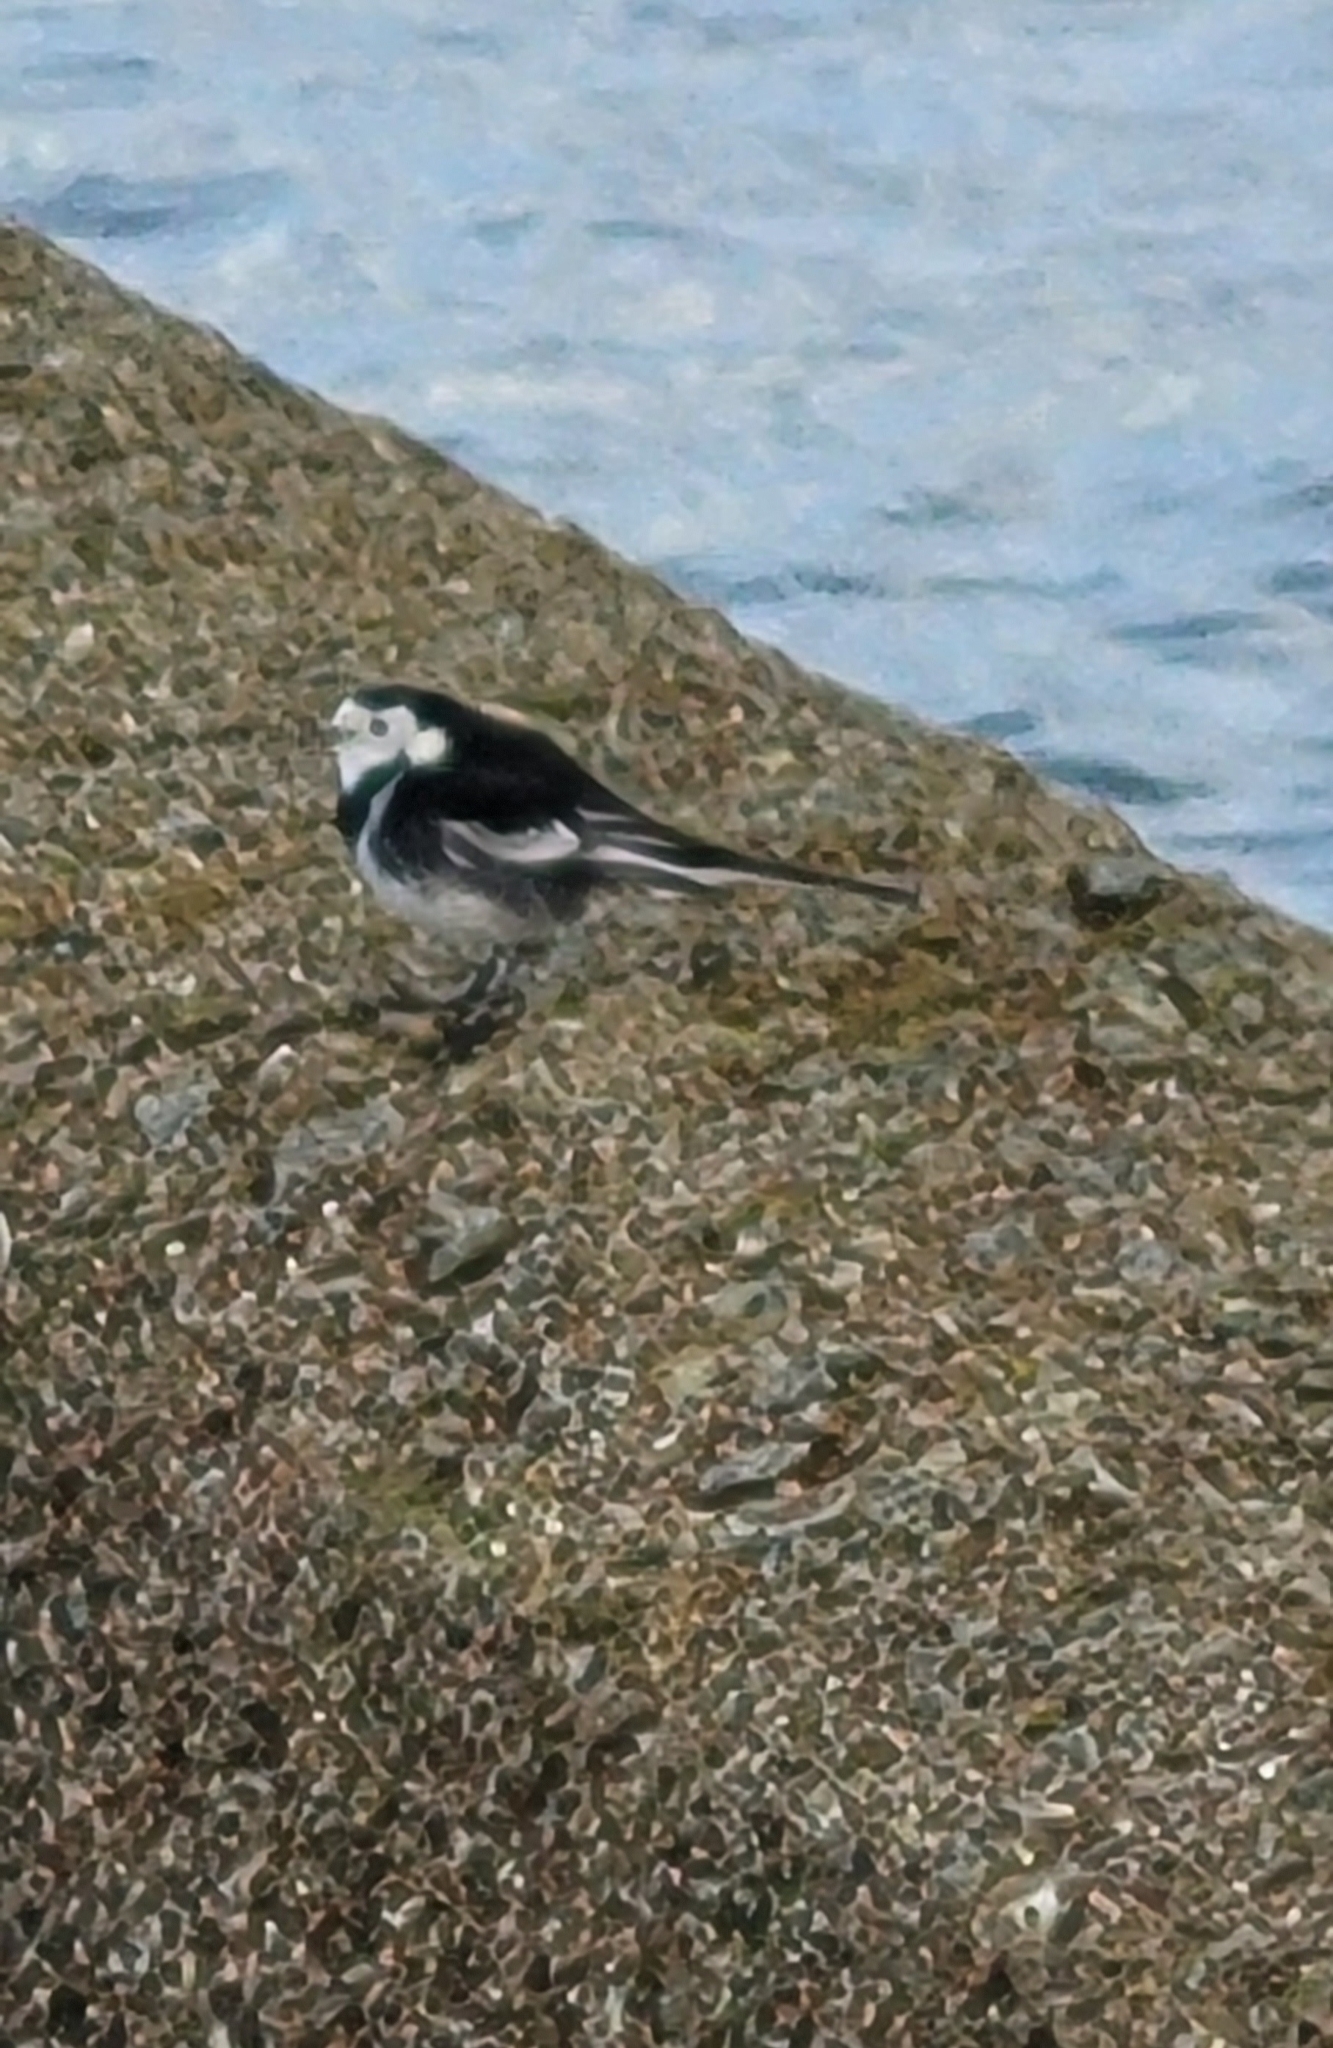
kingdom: Animalia
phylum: Chordata
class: Aves
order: Passeriformes
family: Motacillidae
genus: Motacilla
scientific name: Motacilla alba
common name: White wagtail
